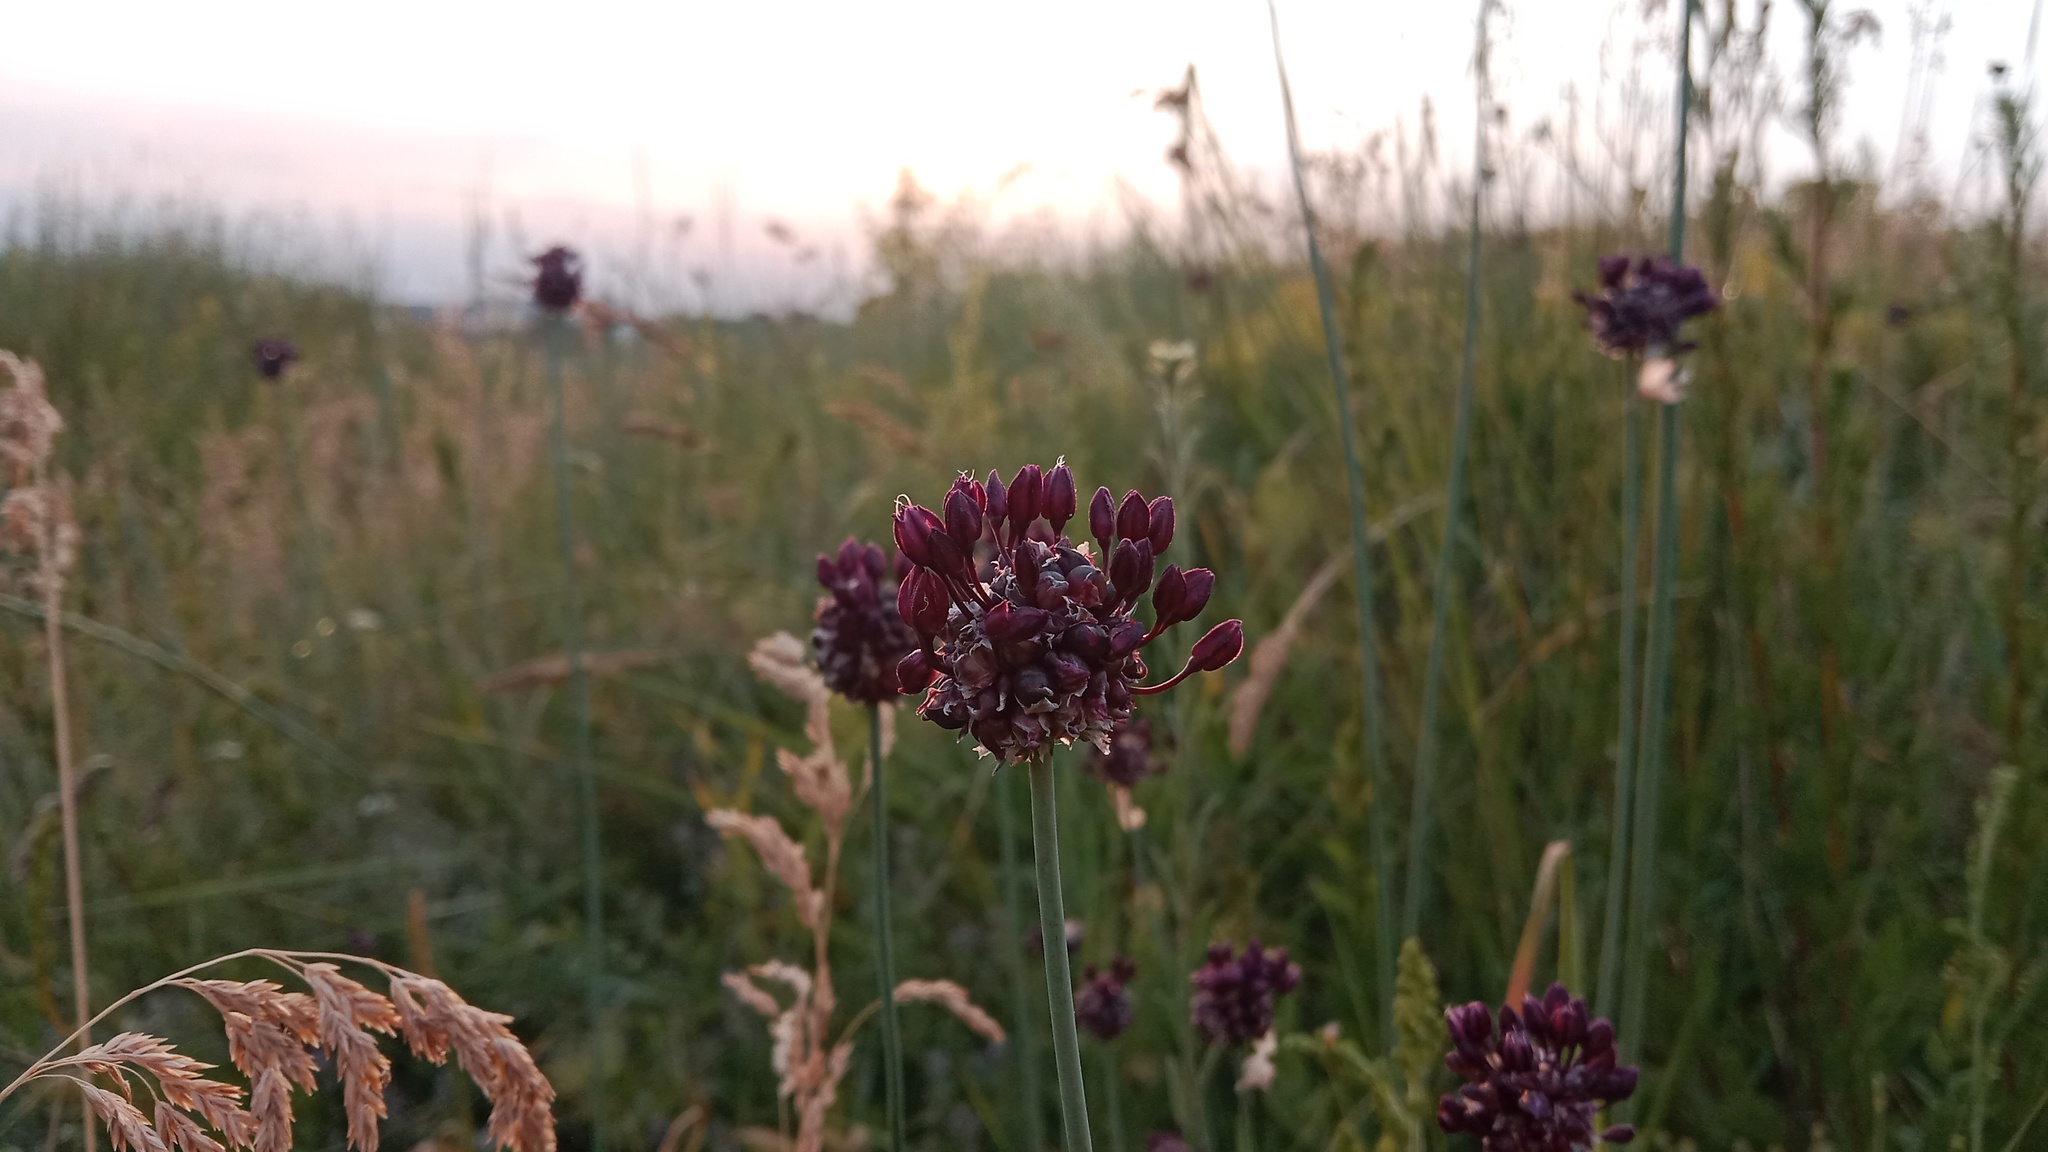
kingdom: Plantae
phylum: Tracheophyta
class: Liliopsida
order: Asparagales
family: Amaryllidaceae
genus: Allium
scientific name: Allium scorodoprasum
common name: Sand leek
